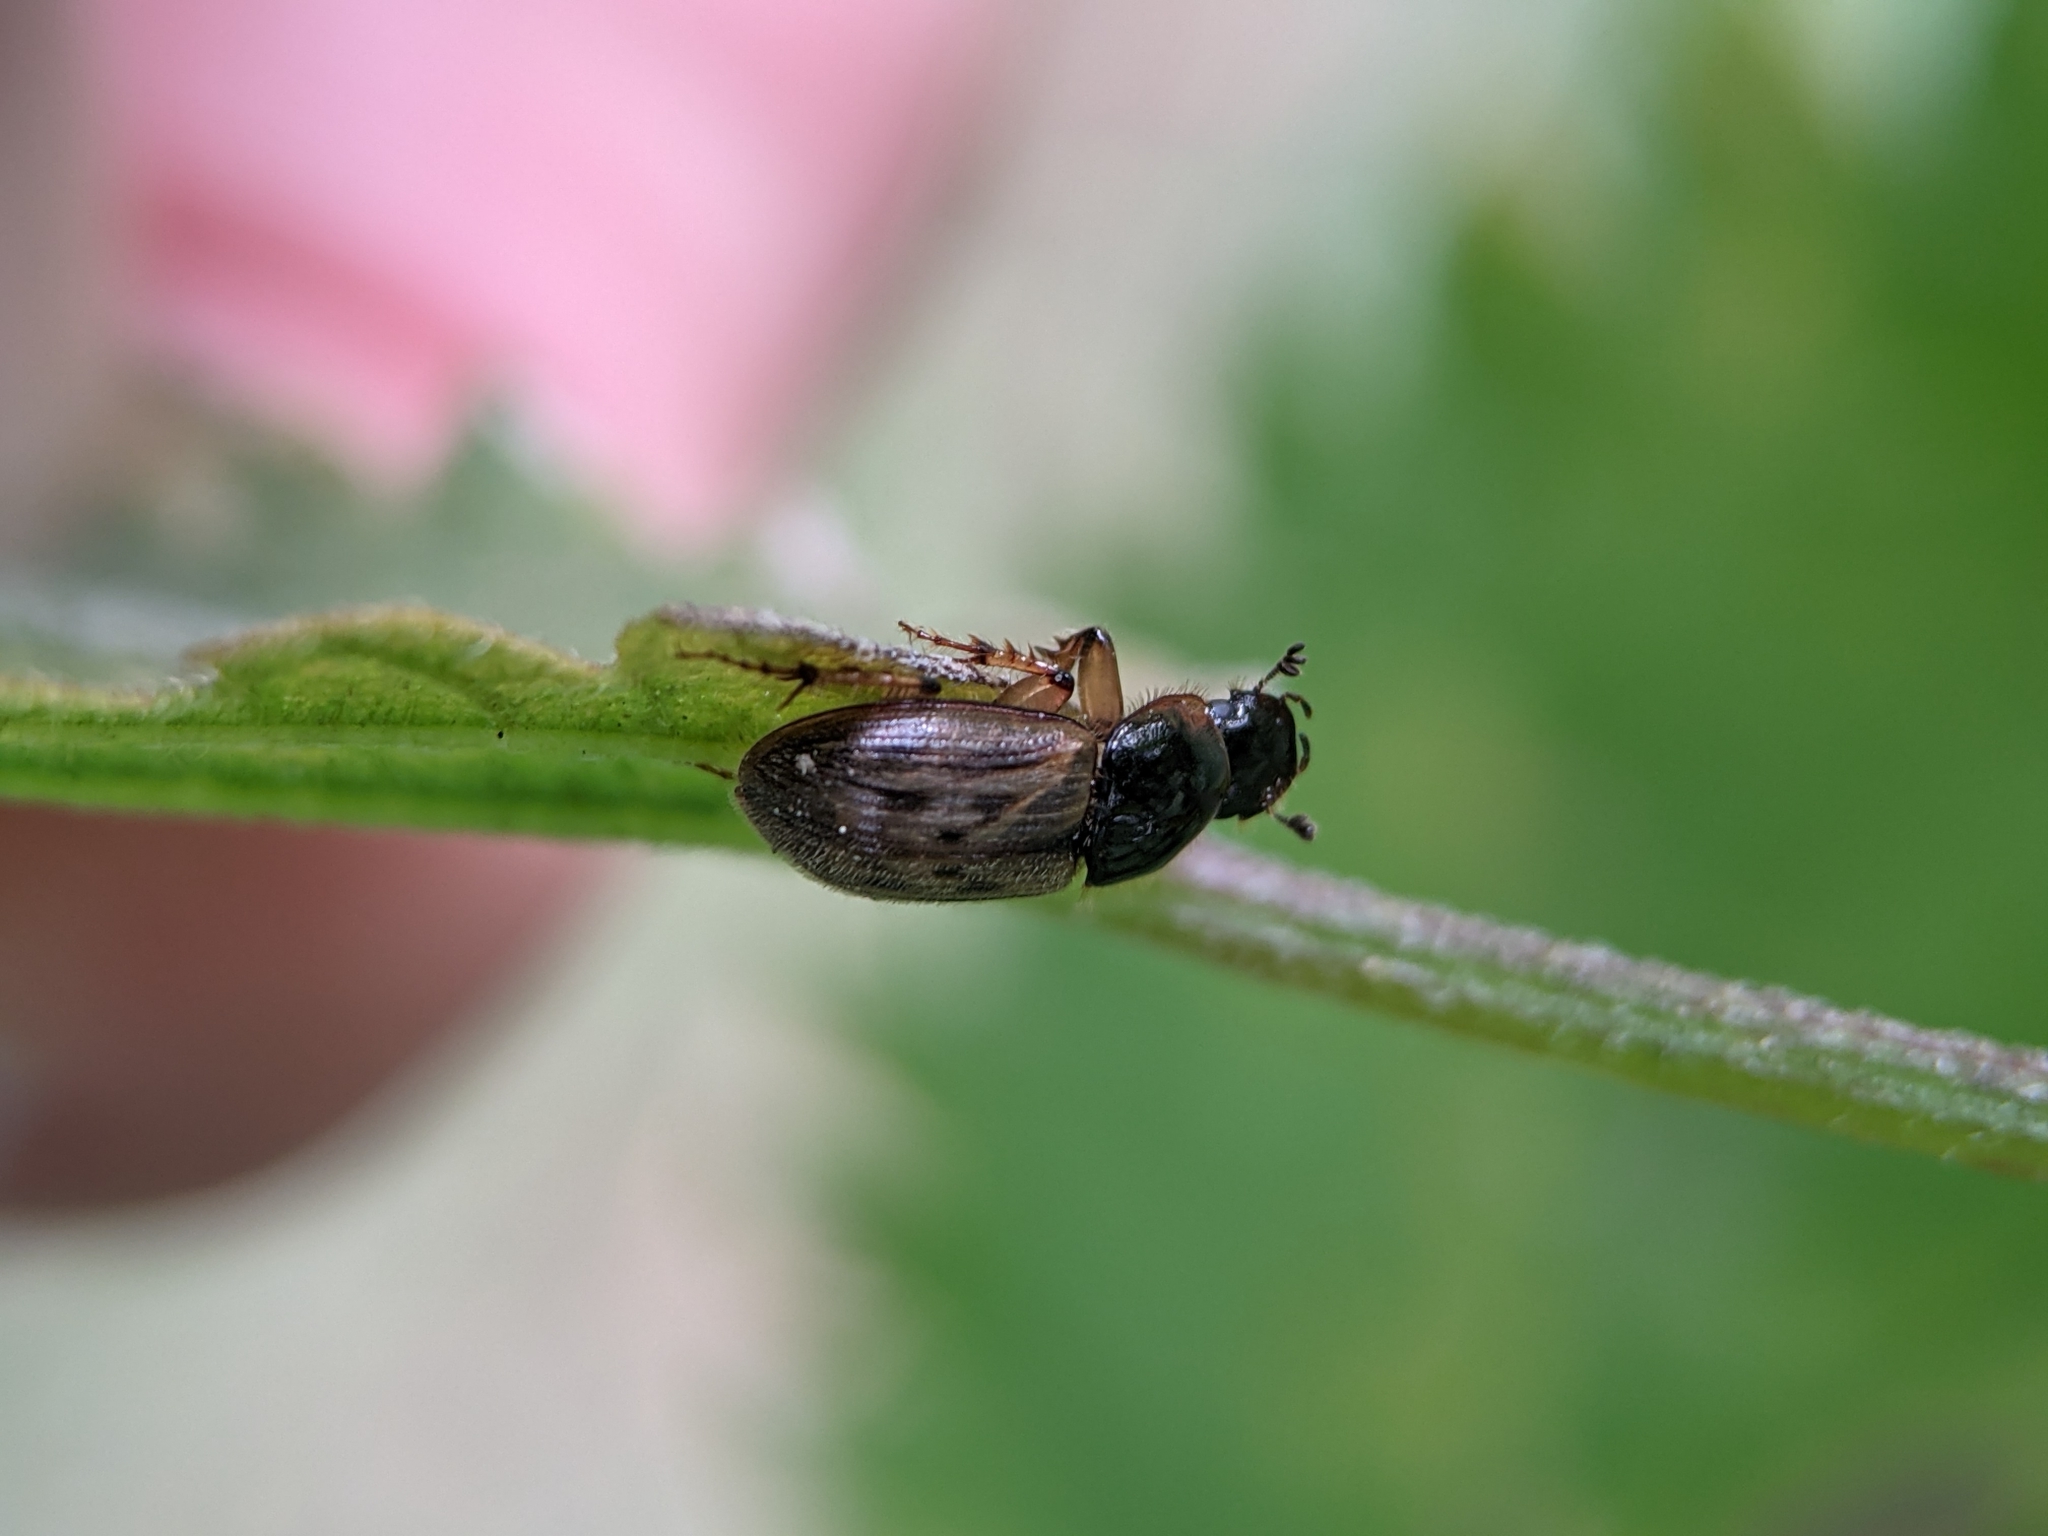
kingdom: Animalia
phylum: Arthropoda
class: Insecta
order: Coleoptera
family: Scarabaeidae
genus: Nimbus
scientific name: Nimbus contaminatus
